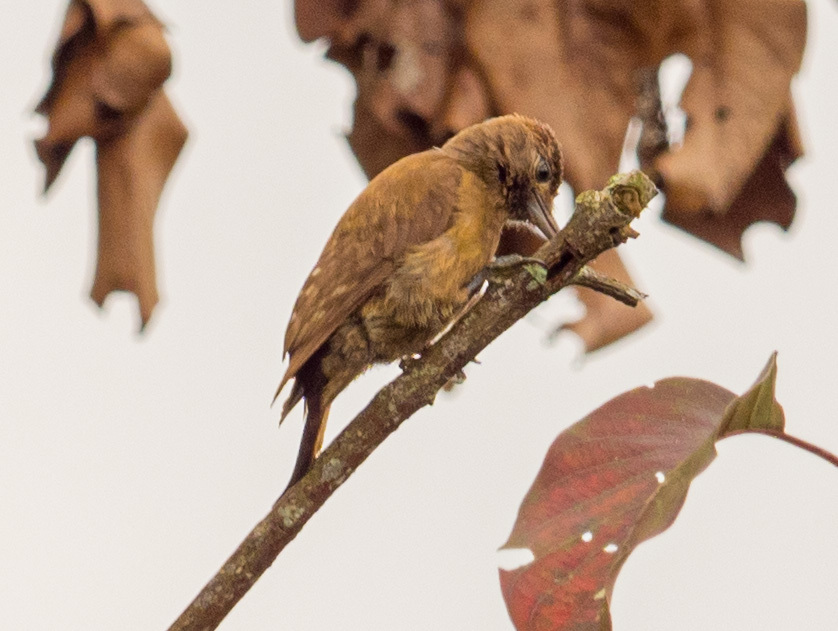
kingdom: Animalia
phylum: Chordata
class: Aves
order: Piciformes
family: Picidae
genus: Leuconotopicus
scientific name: Leuconotopicus fumigatus
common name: Smoky-brown woodpecker
